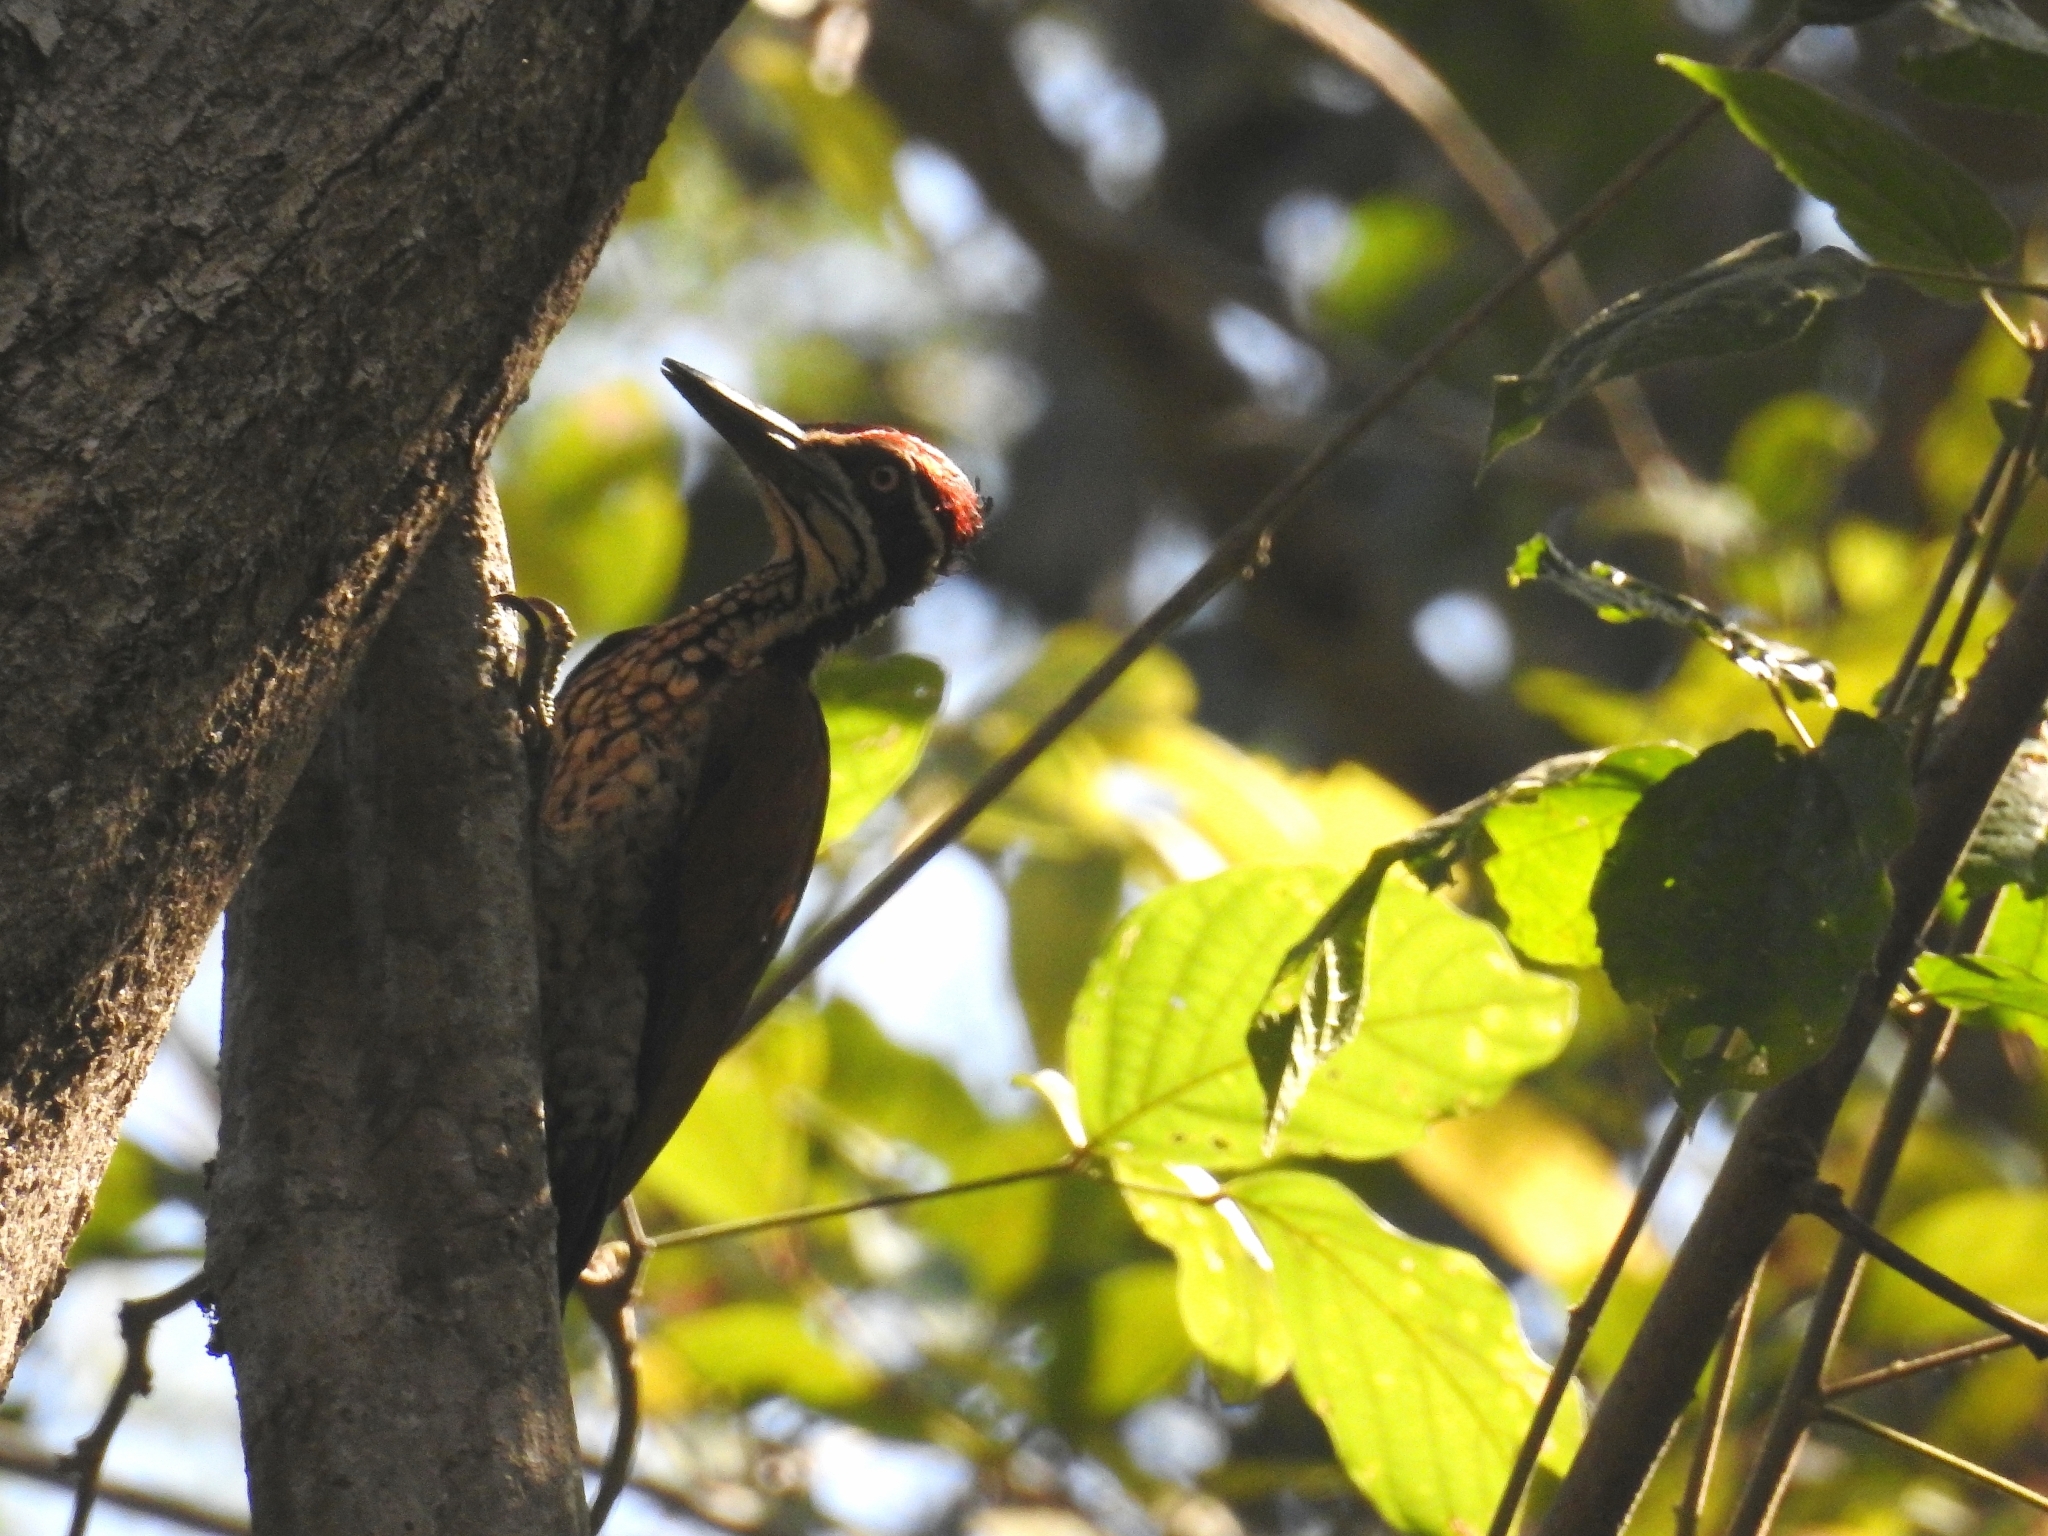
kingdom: Animalia
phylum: Chordata
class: Aves
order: Piciformes
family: Picidae
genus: Chrysocolaptes
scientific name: Chrysocolaptes socialis
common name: Malabar flameback
